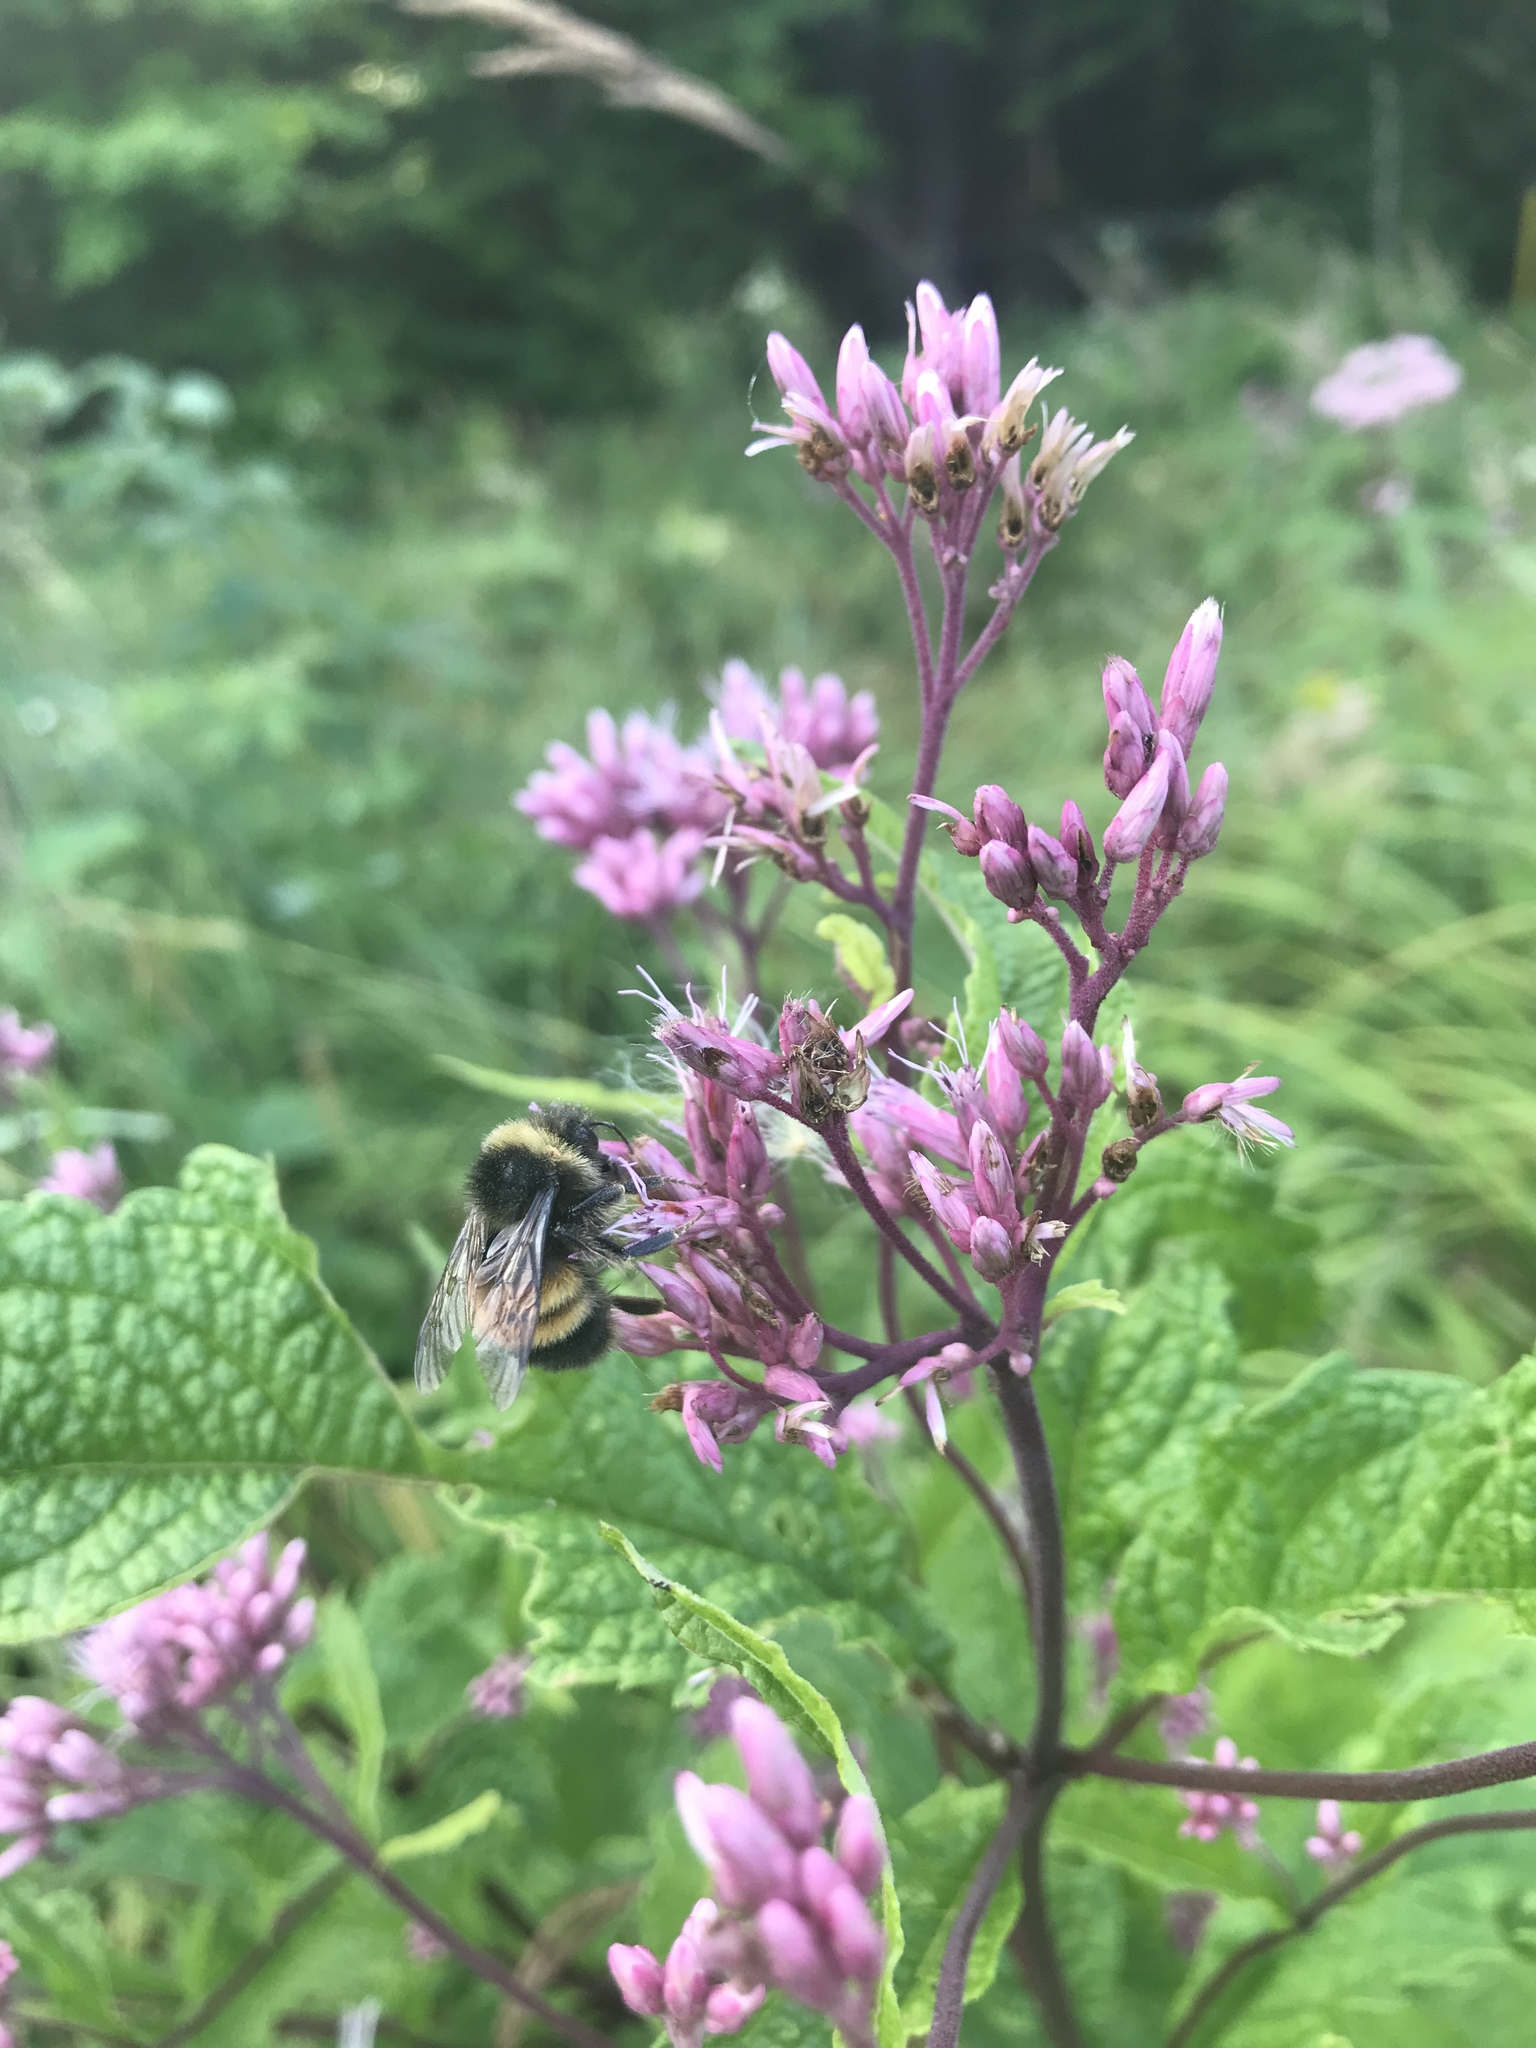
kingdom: Animalia
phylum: Arthropoda
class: Insecta
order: Hymenoptera
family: Apidae
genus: Bombus
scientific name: Bombus terricola
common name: Yellow-banded bumble bee
